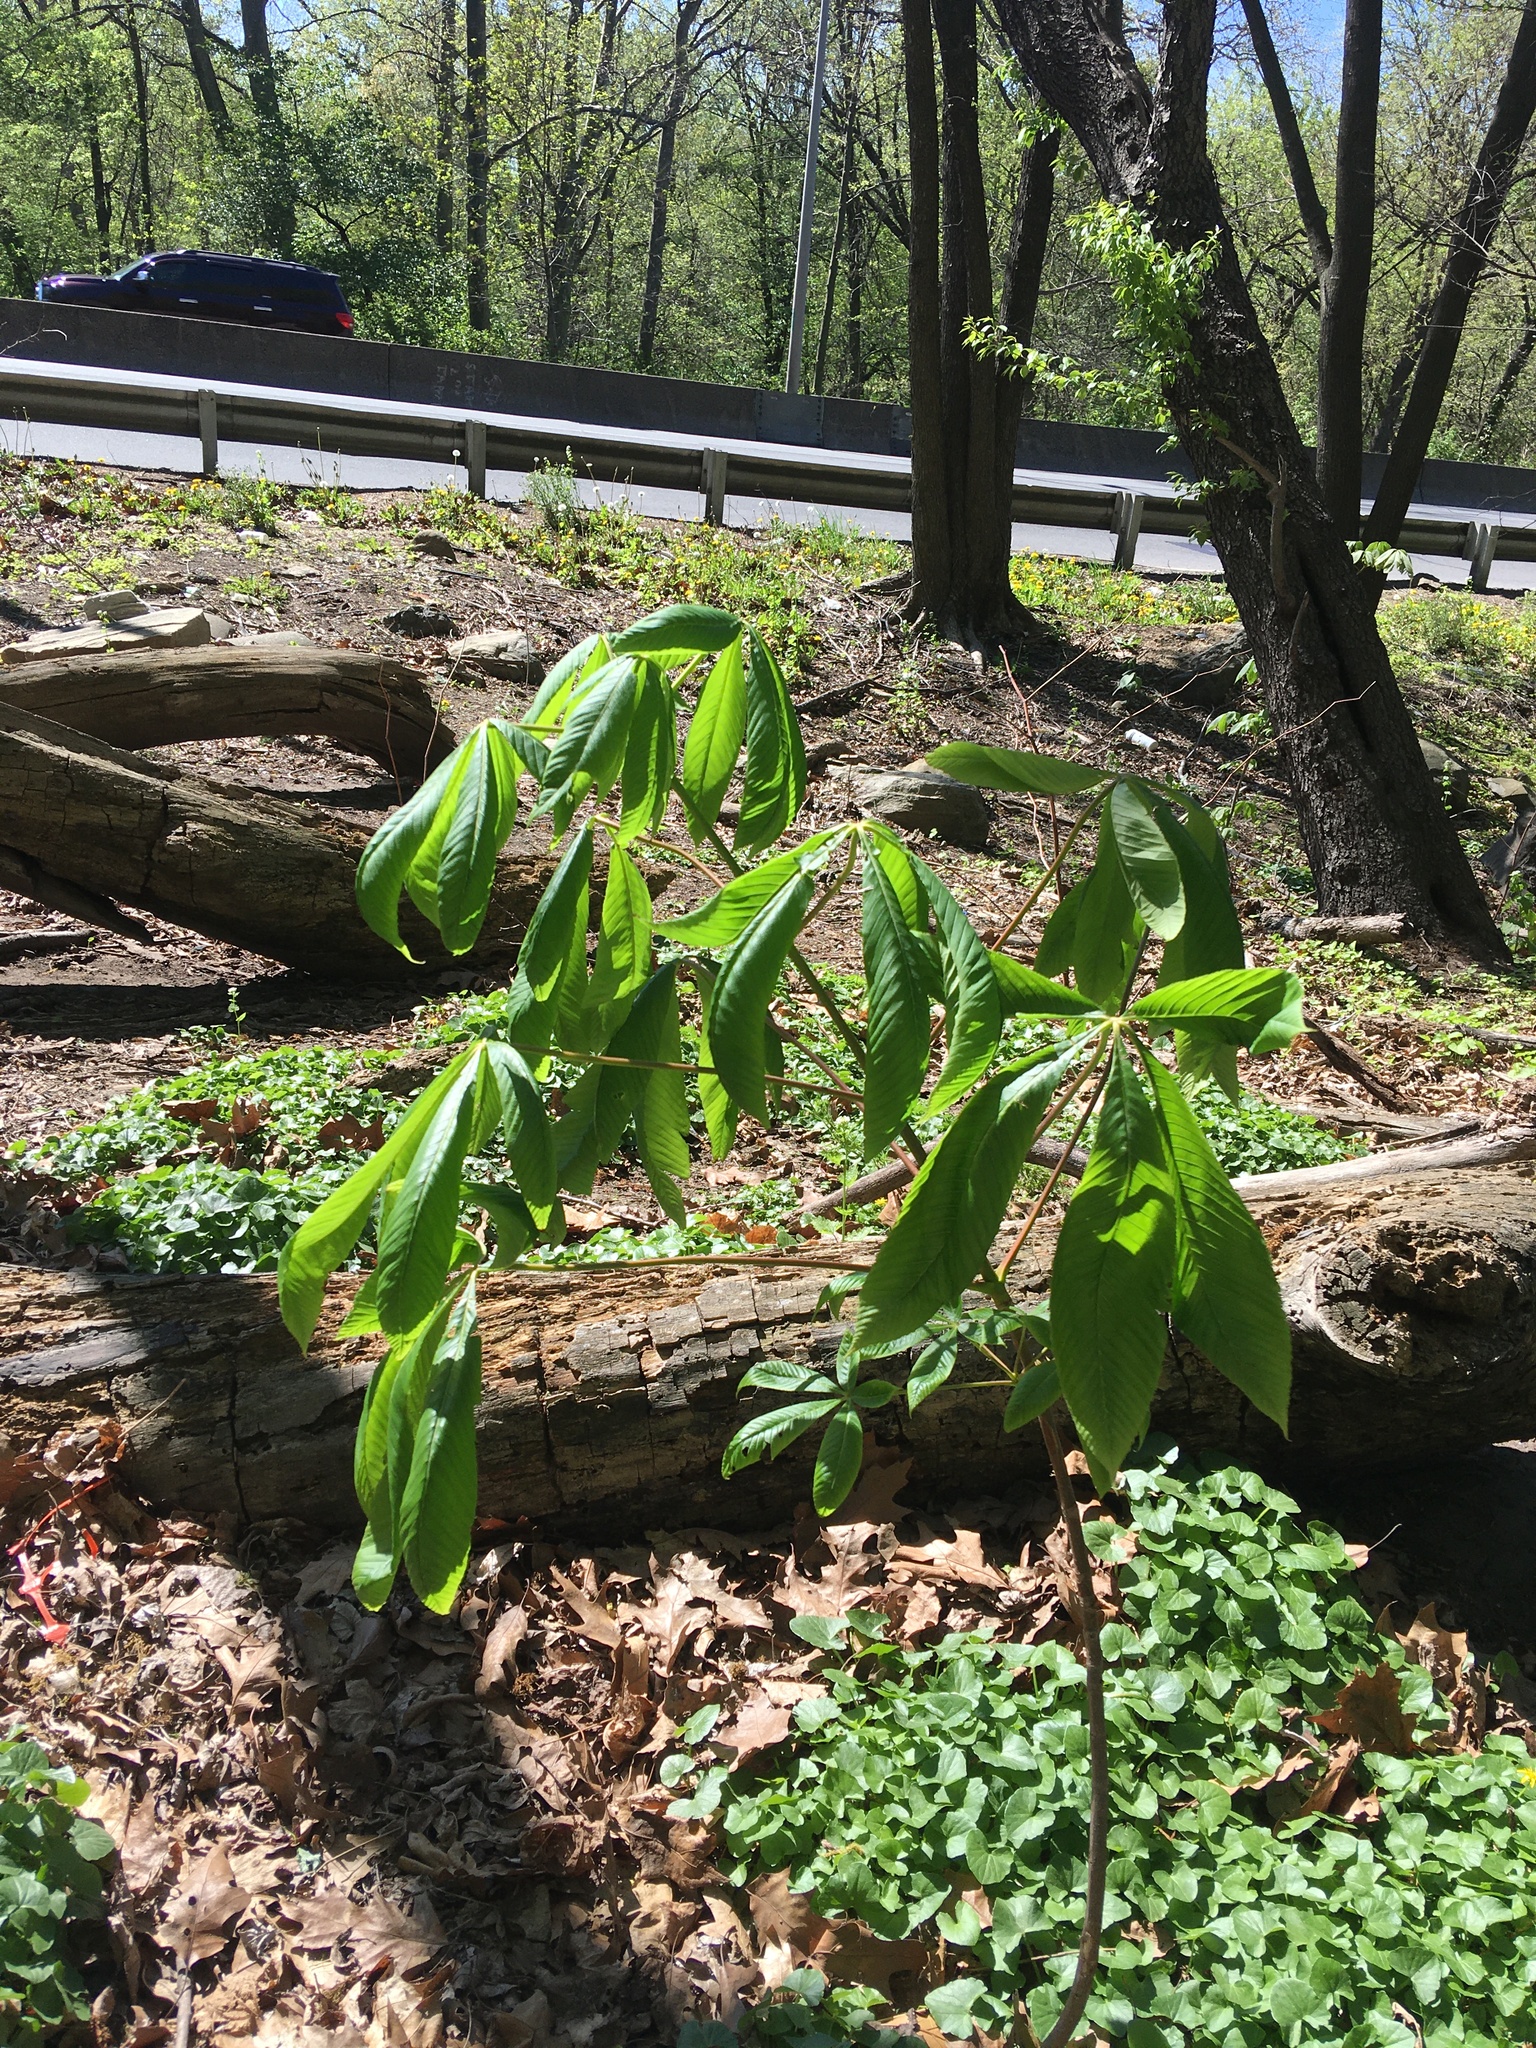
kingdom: Plantae
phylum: Tracheophyta
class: Magnoliopsida
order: Sapindales
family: Sapindaceae
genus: Aesculus
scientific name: Aesculus flava
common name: Yellow buckeye
